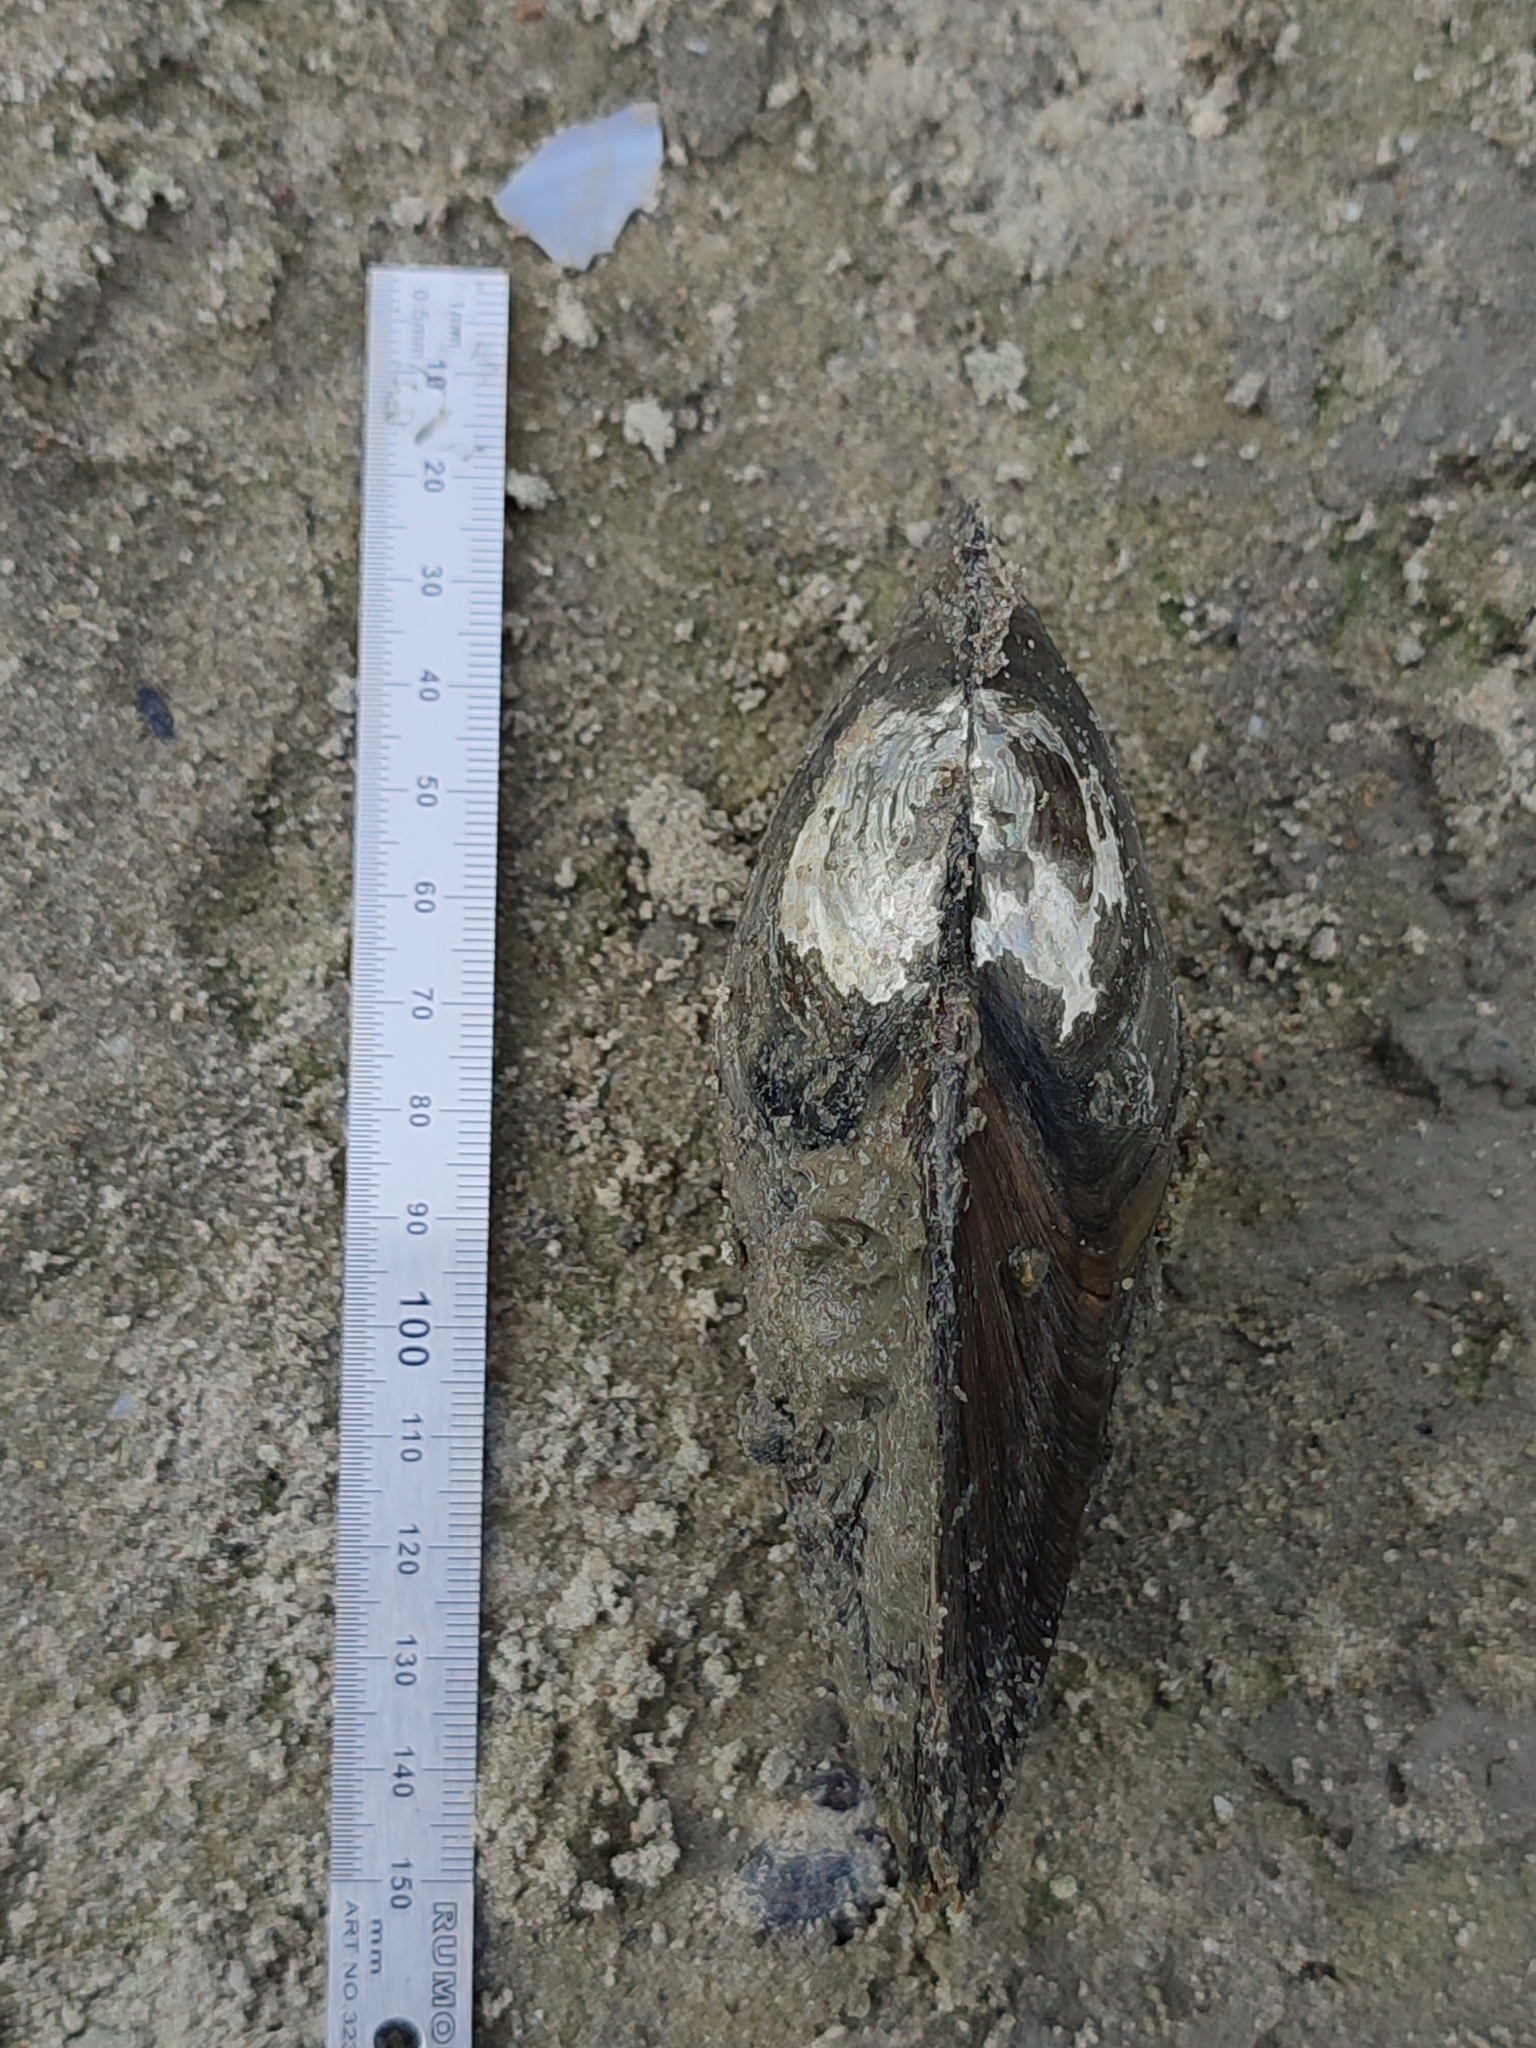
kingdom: Animalia
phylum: Mollusca
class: Bivalvia
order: Unionida
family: Unionidae
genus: Anodonta
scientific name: Anodonta cygnea
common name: Swan mussel
